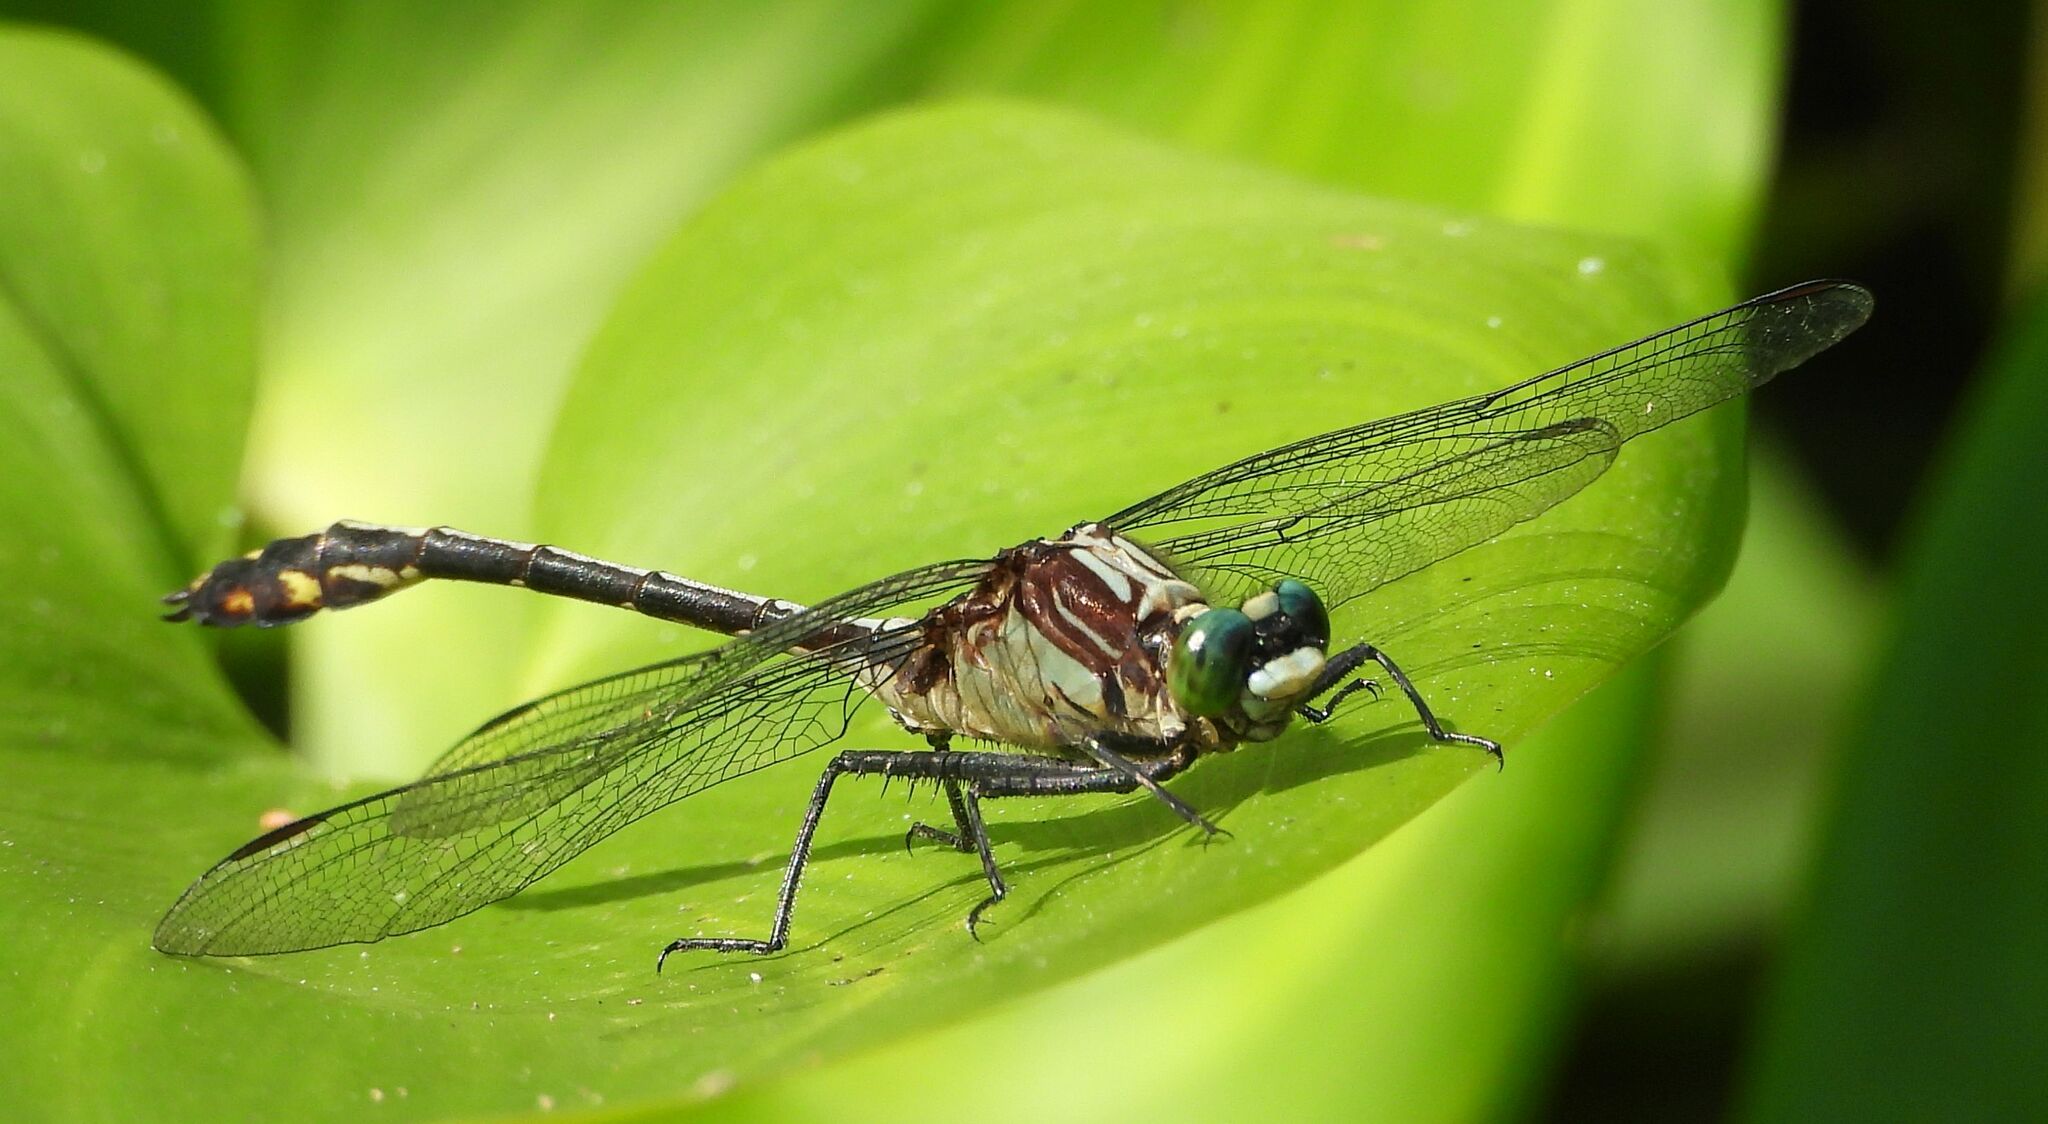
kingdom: Animalia
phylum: Arthropoda
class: Insecta
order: Odonata
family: Gomphidae
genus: Dromogomphus
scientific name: Dromogomphus spinosus
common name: Black-shouldered spinyleg
